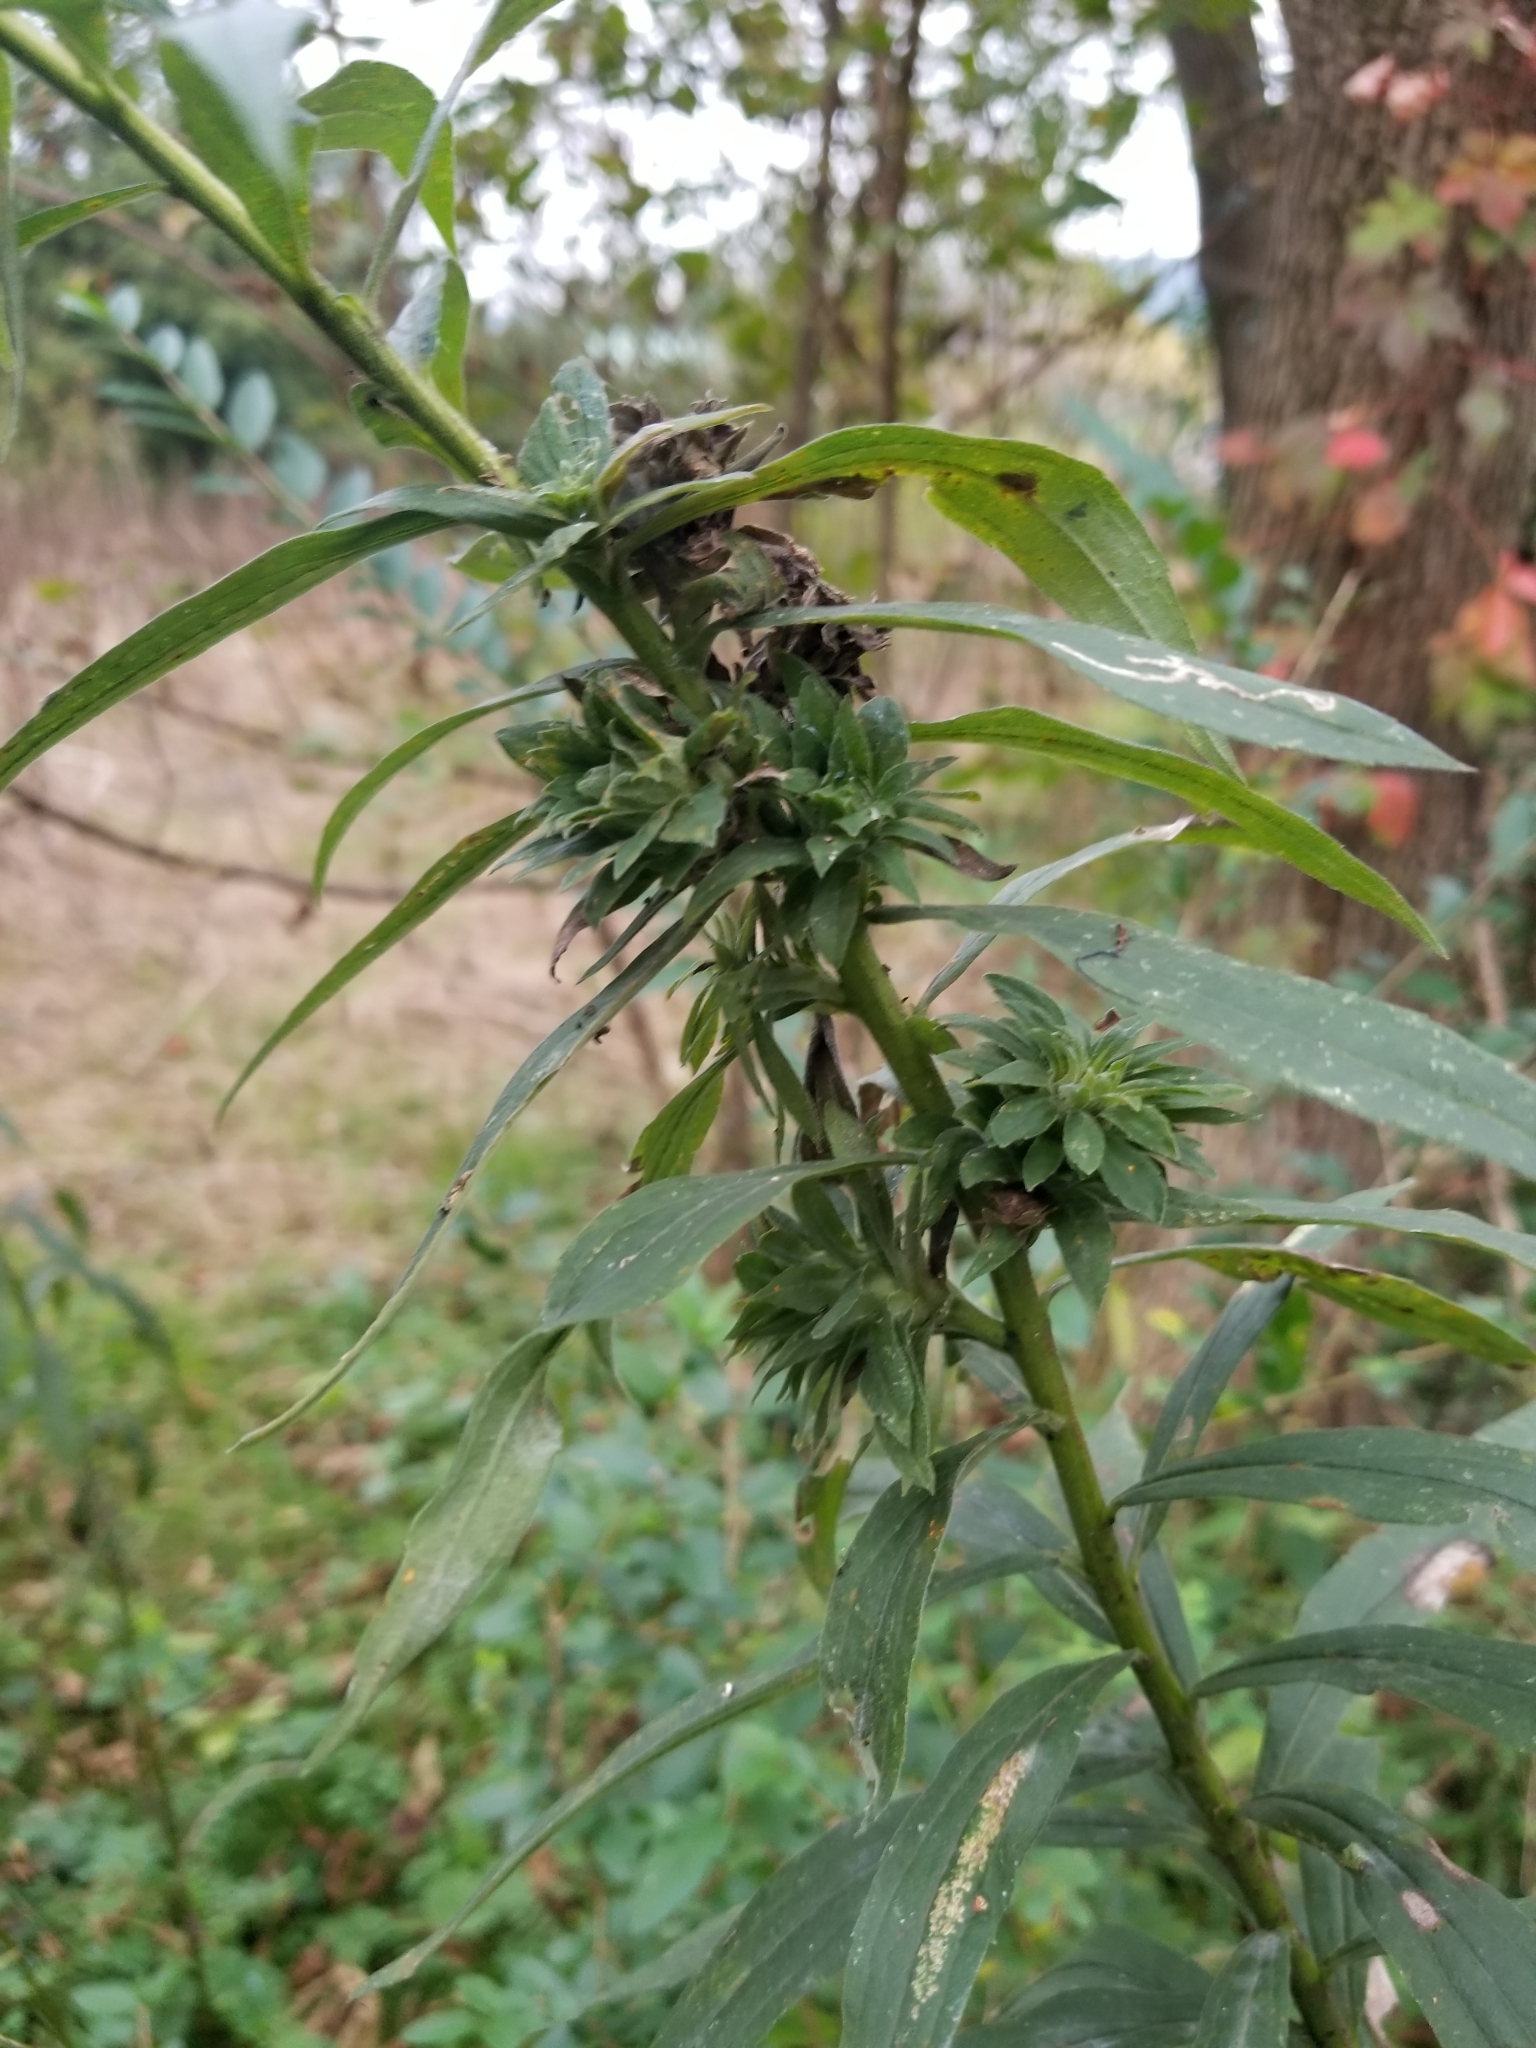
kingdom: Animalia
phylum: Arthropoda
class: Insecta
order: Diptera
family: Tephritidae
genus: Procecidochares
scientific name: Procecidochares atra
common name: Goldenrod brussels sprout gall fly
